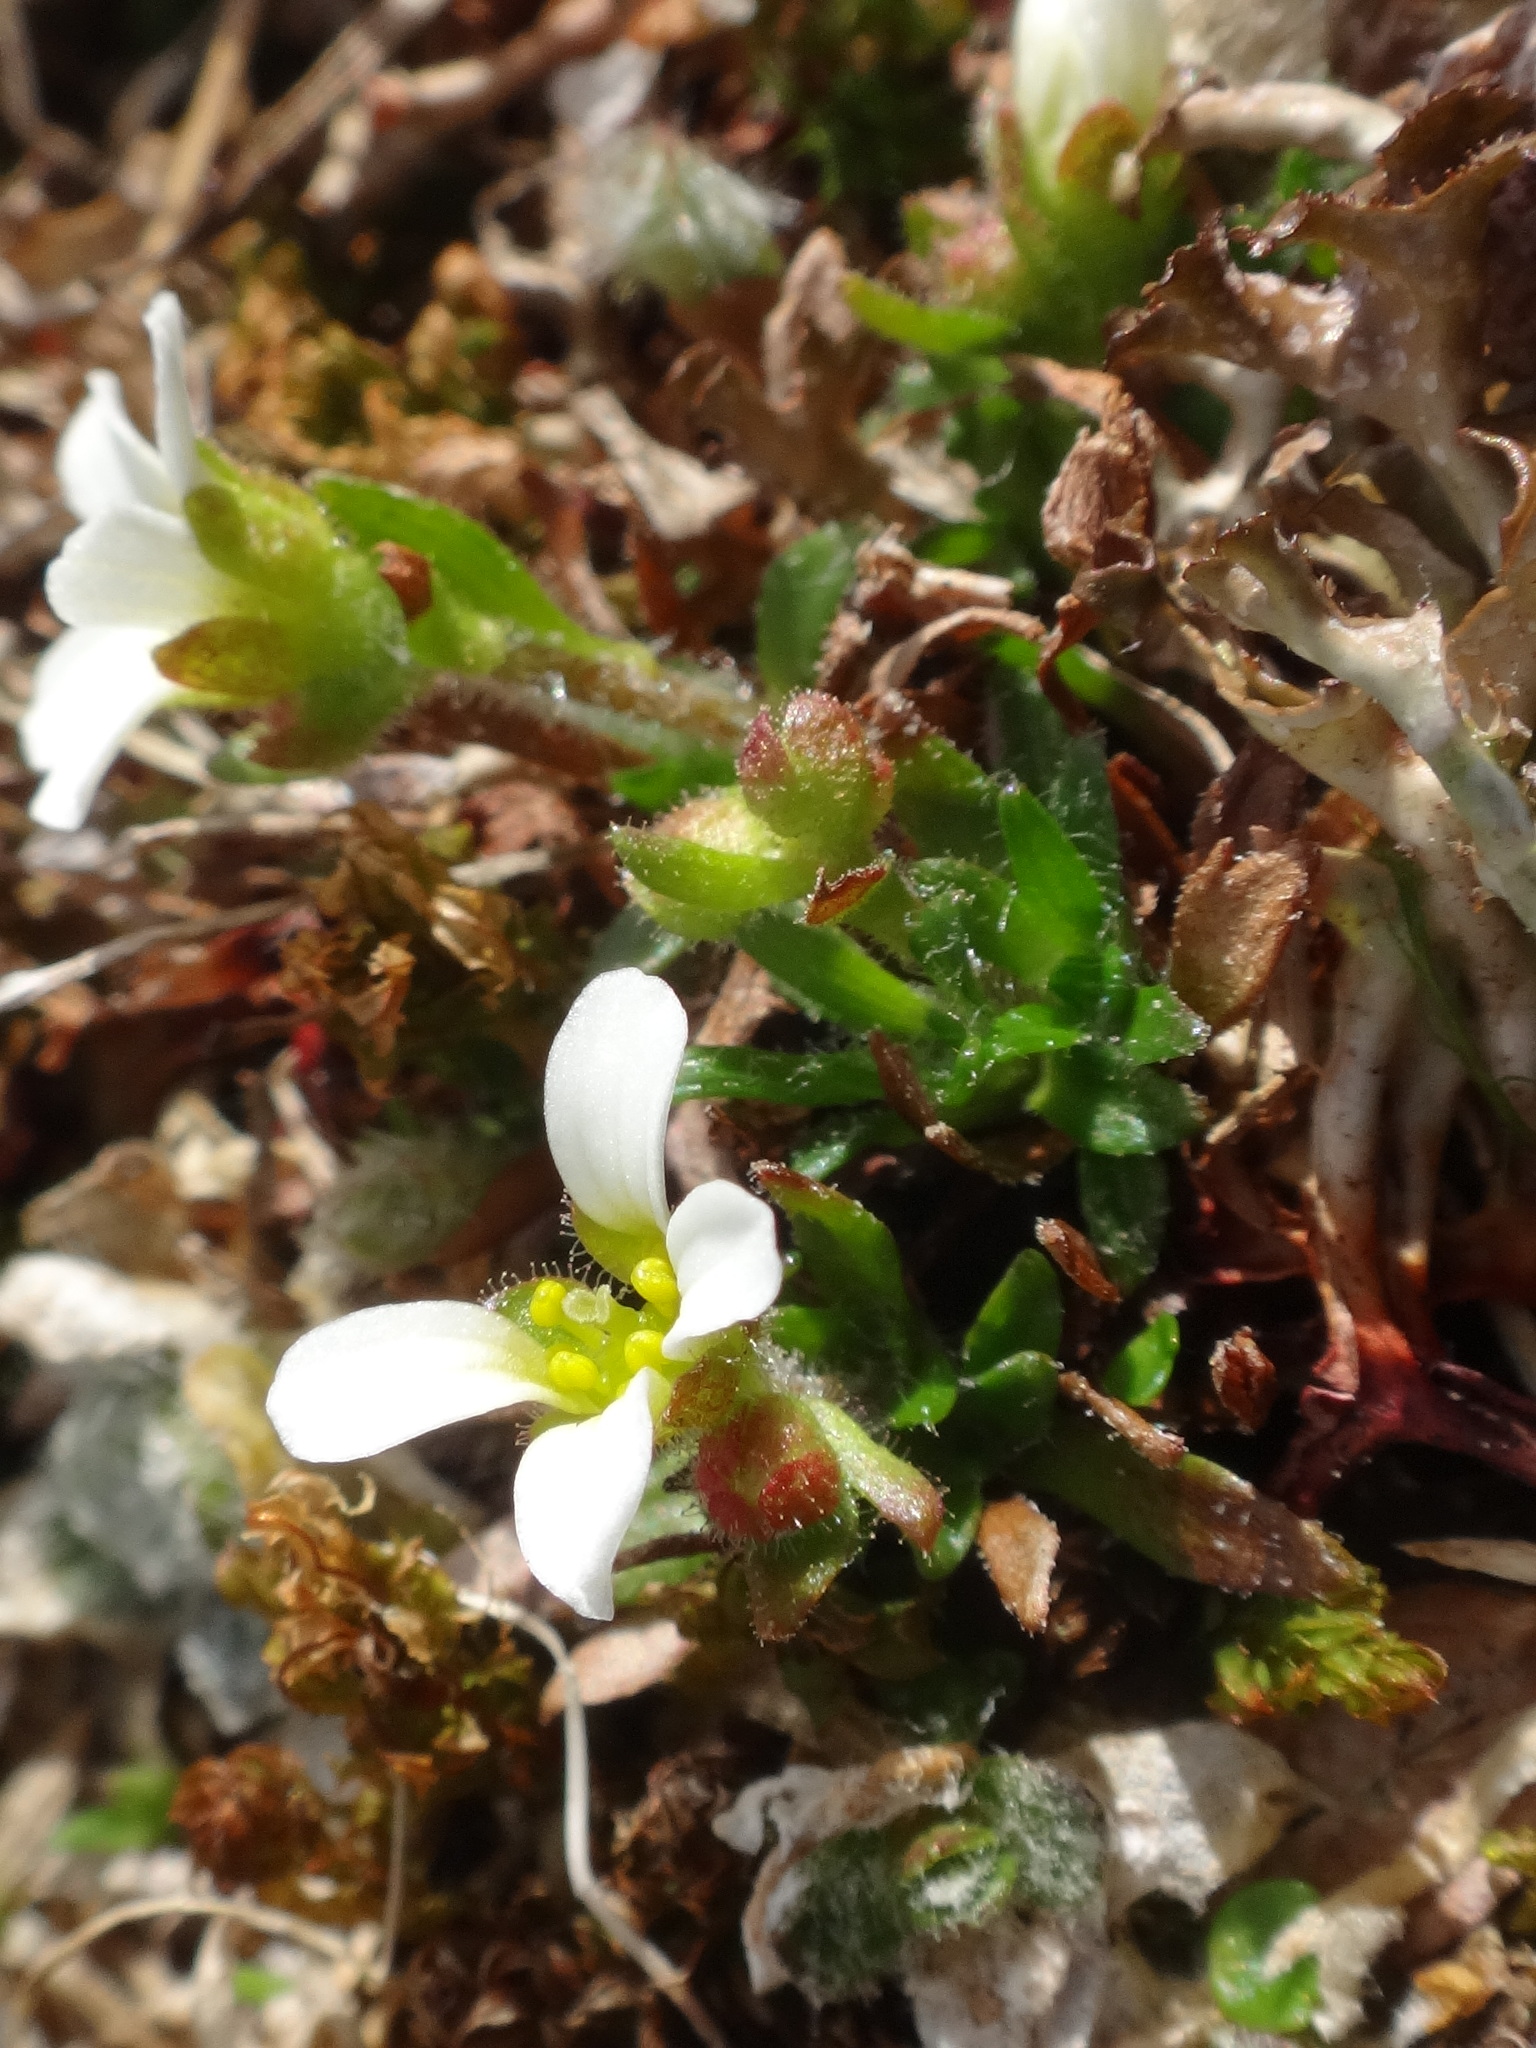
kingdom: Plantae
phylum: Tracheophyta
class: Magnoliopsida
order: Saxifragales
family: Saxifragaceae
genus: Saxifraga
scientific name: Saxifraga androsacea
